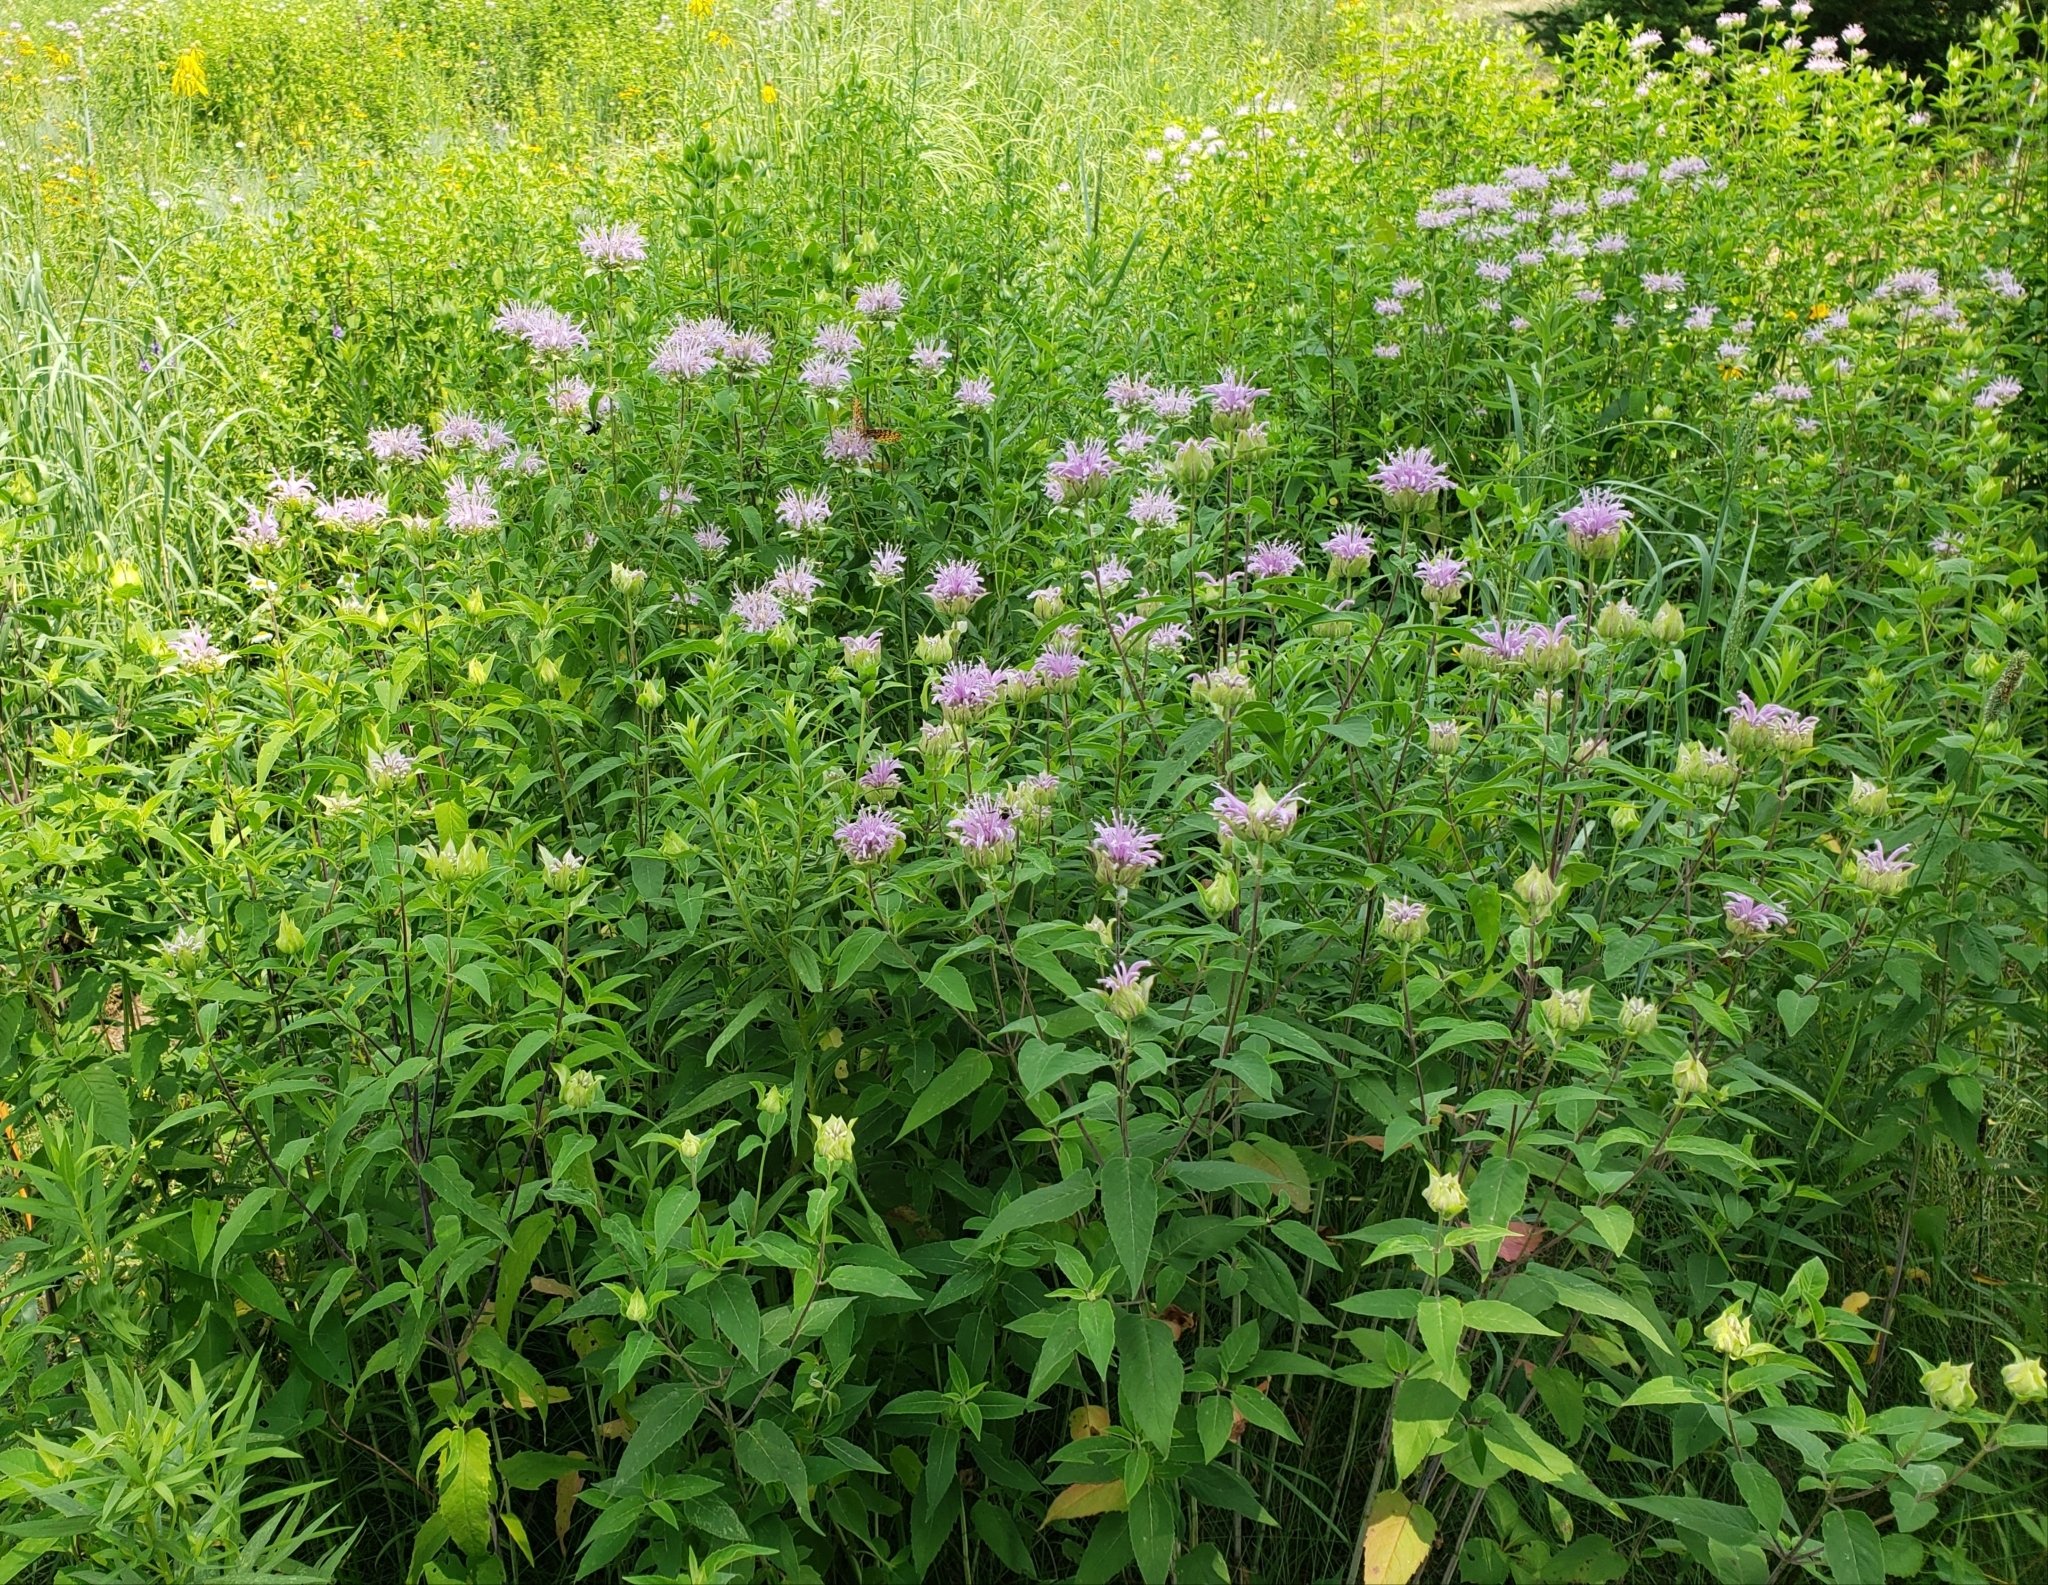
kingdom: Plantae
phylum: Tracheophyta
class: Magnoliopsida
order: Lamiales
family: Lamiaceae
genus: Monarda
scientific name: Monarda fistulosa
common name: Purple beebalm
